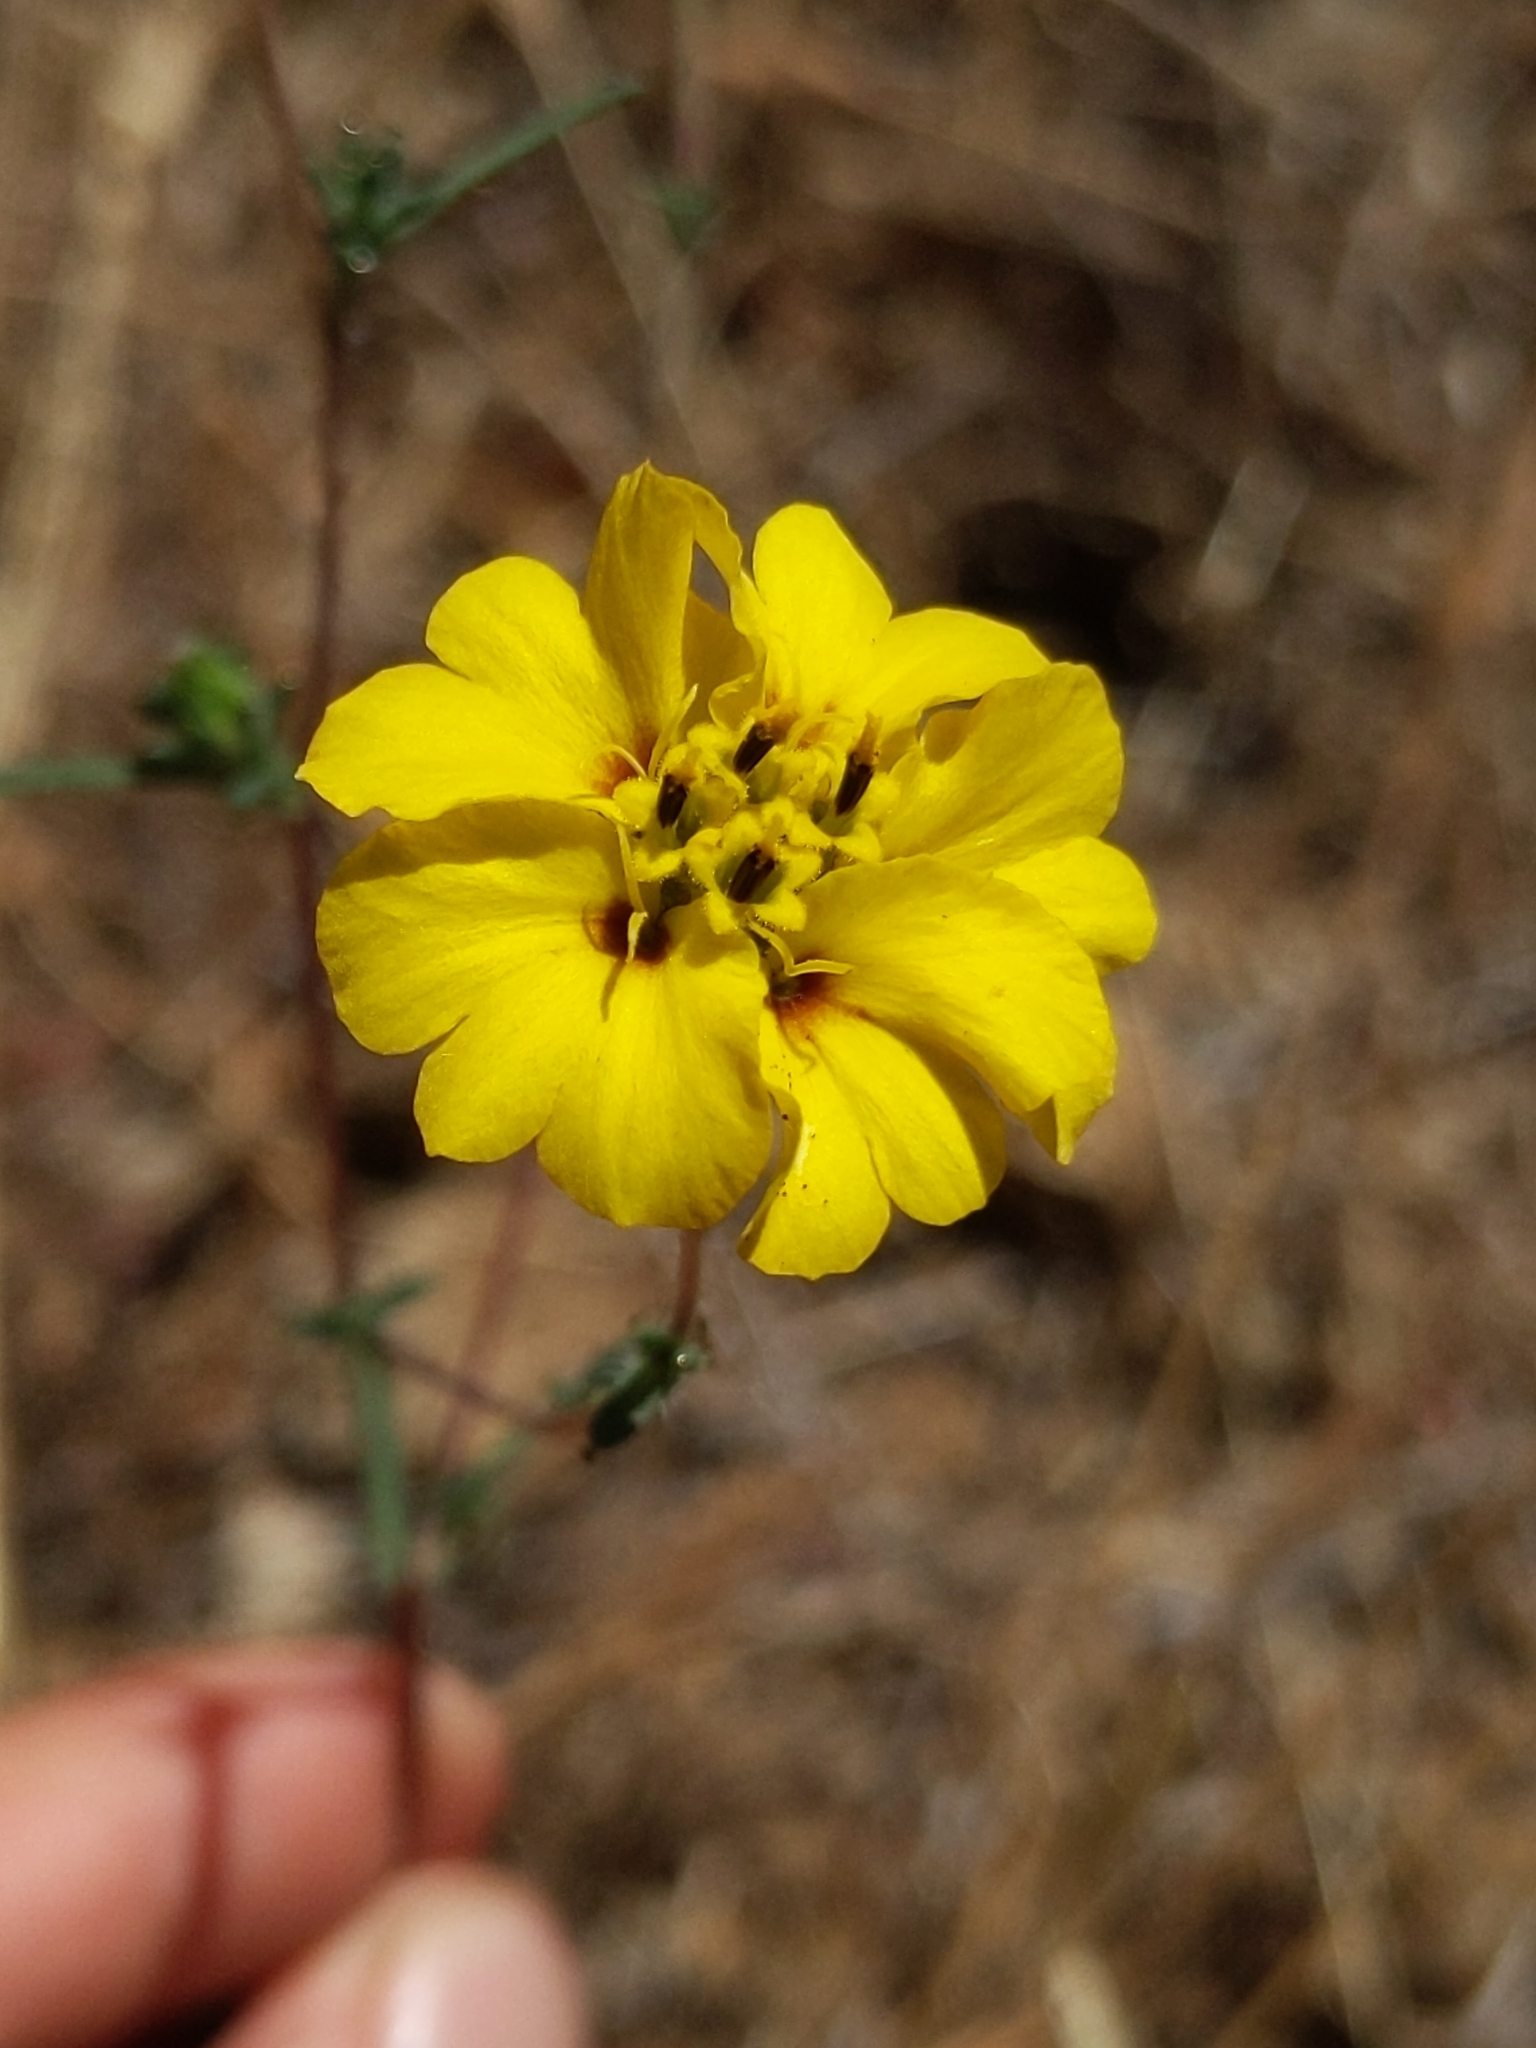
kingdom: Plantae
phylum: Tracheophyta
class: Magnoliopsida
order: Asterales
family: Asteraceae
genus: Calycadenia
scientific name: Calycadenia truncata
